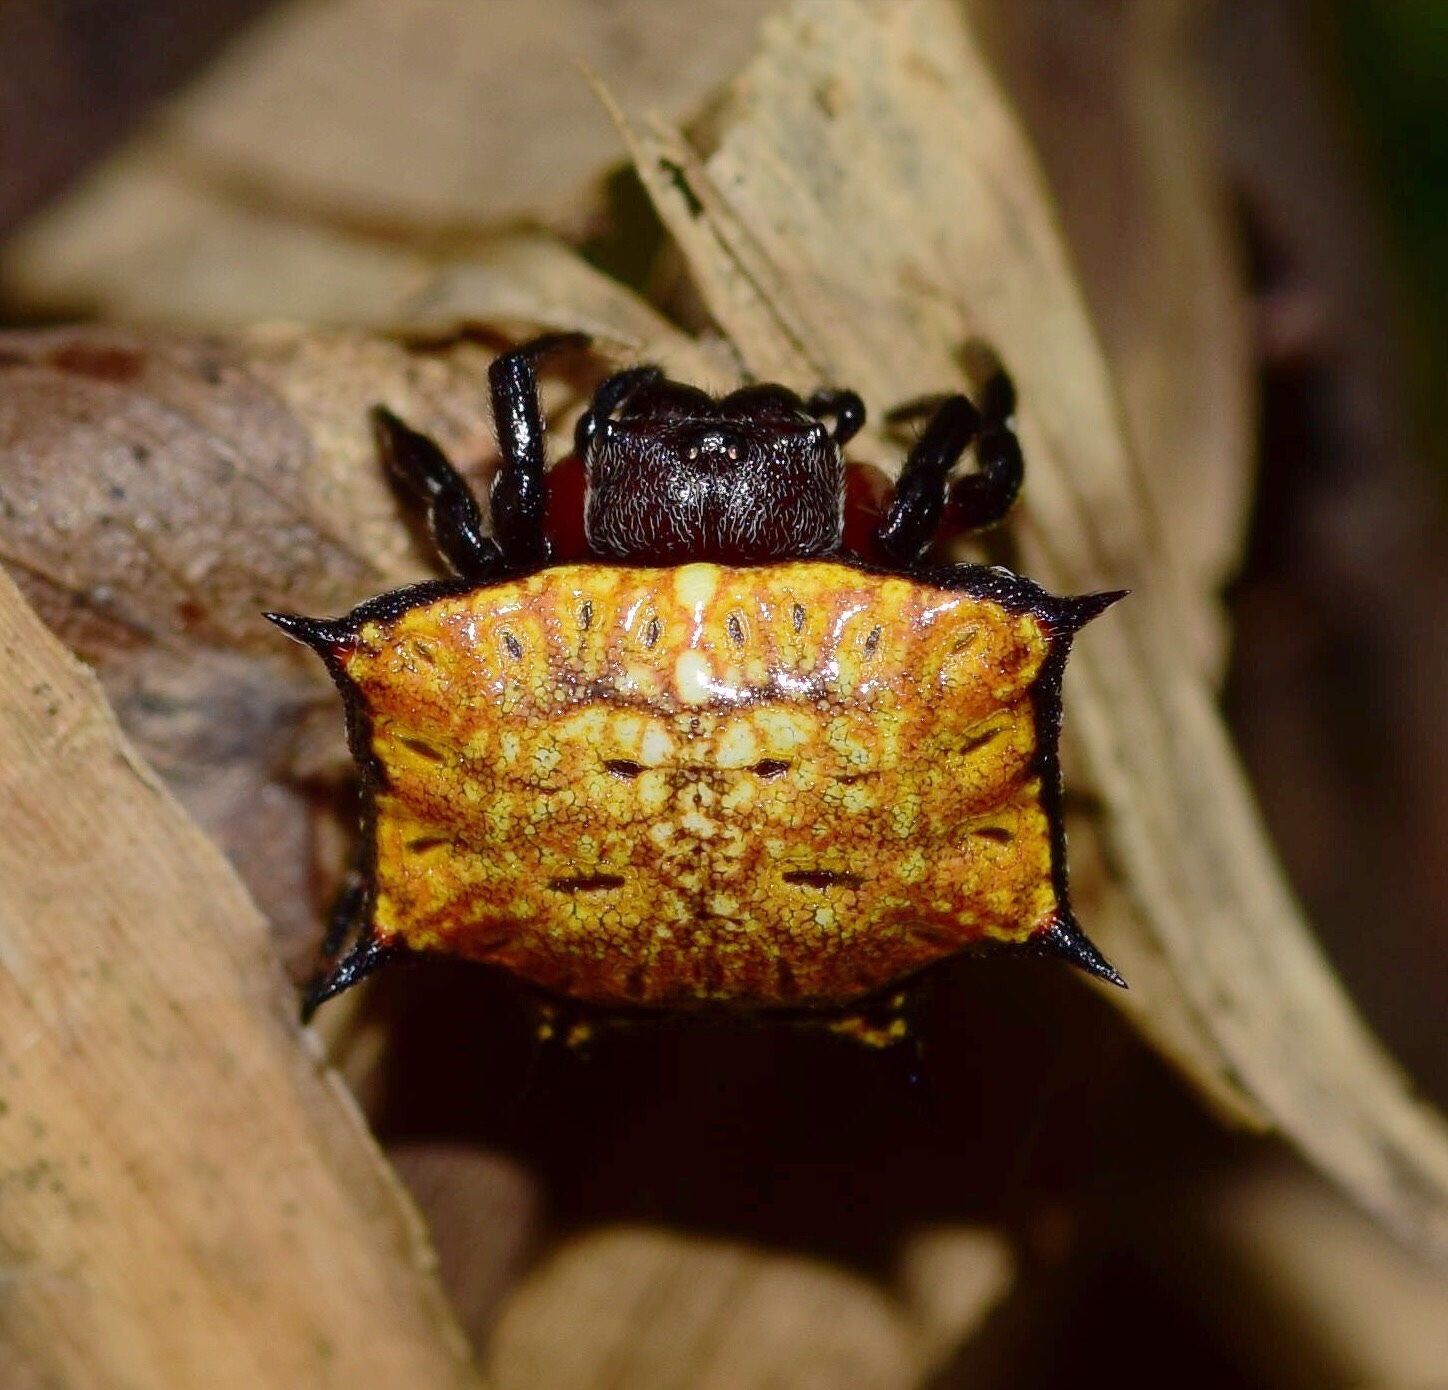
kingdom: Animalia
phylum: Arthropoda
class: Arachnida
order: Araneae
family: Araneidae
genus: Isoxya
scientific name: Isoxya tabulata
